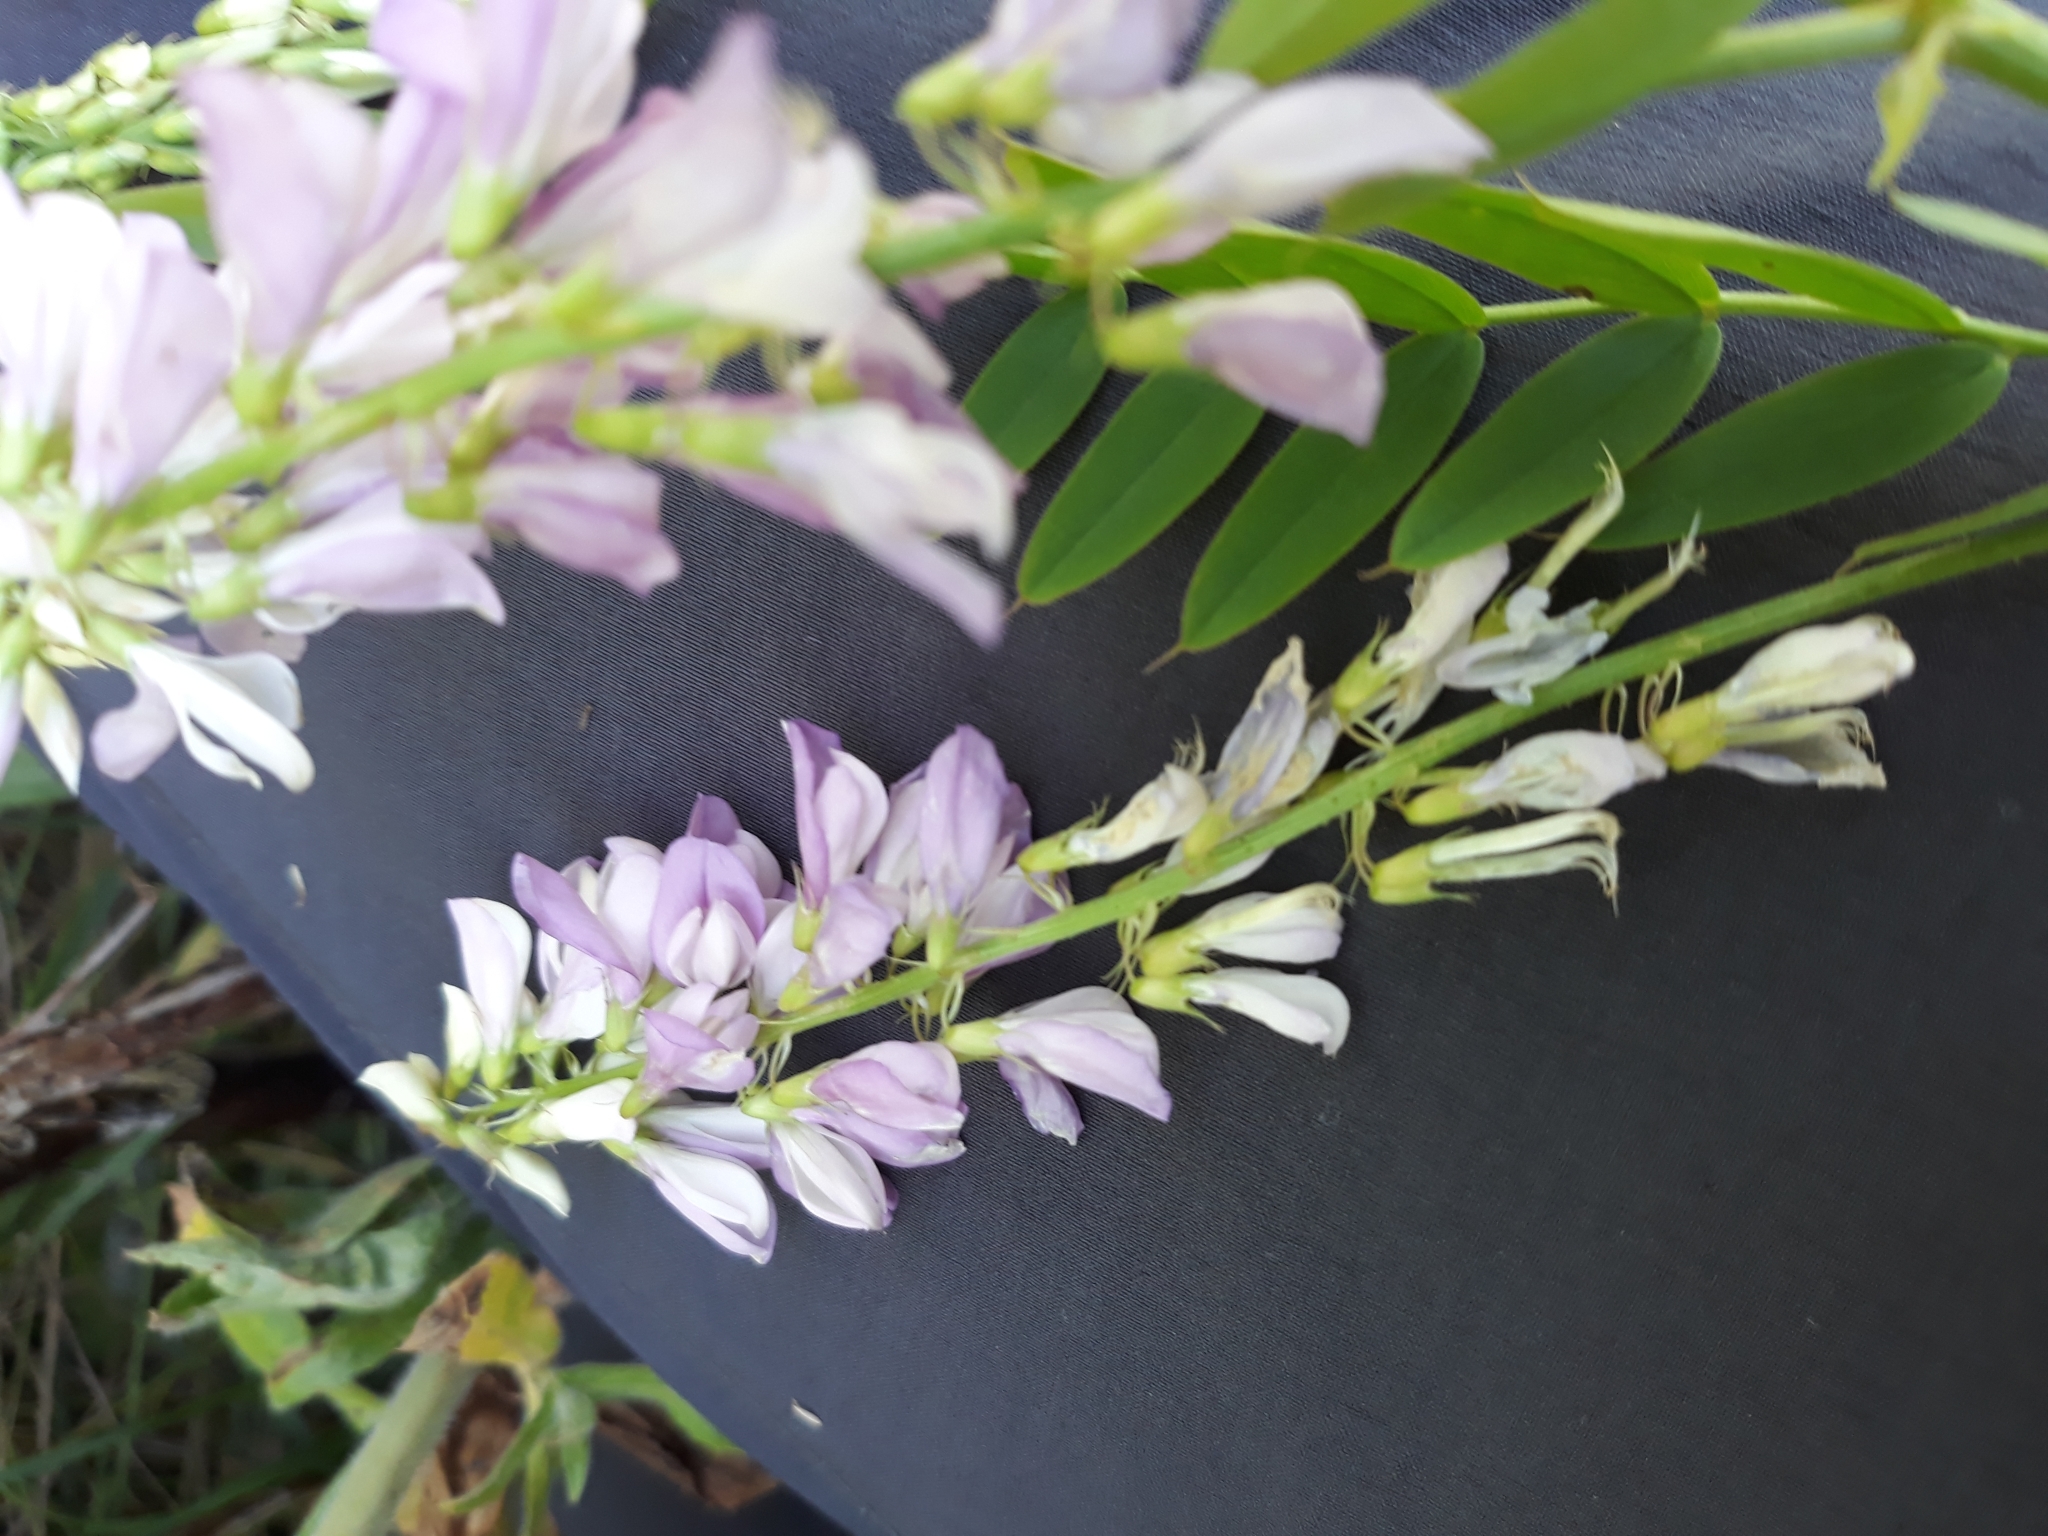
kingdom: Plantae
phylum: Tracheophyta
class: Magnoliopsida
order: Fabales
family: Fabaceae
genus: Galega
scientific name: Galega officinalis
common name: Goat's-rue
